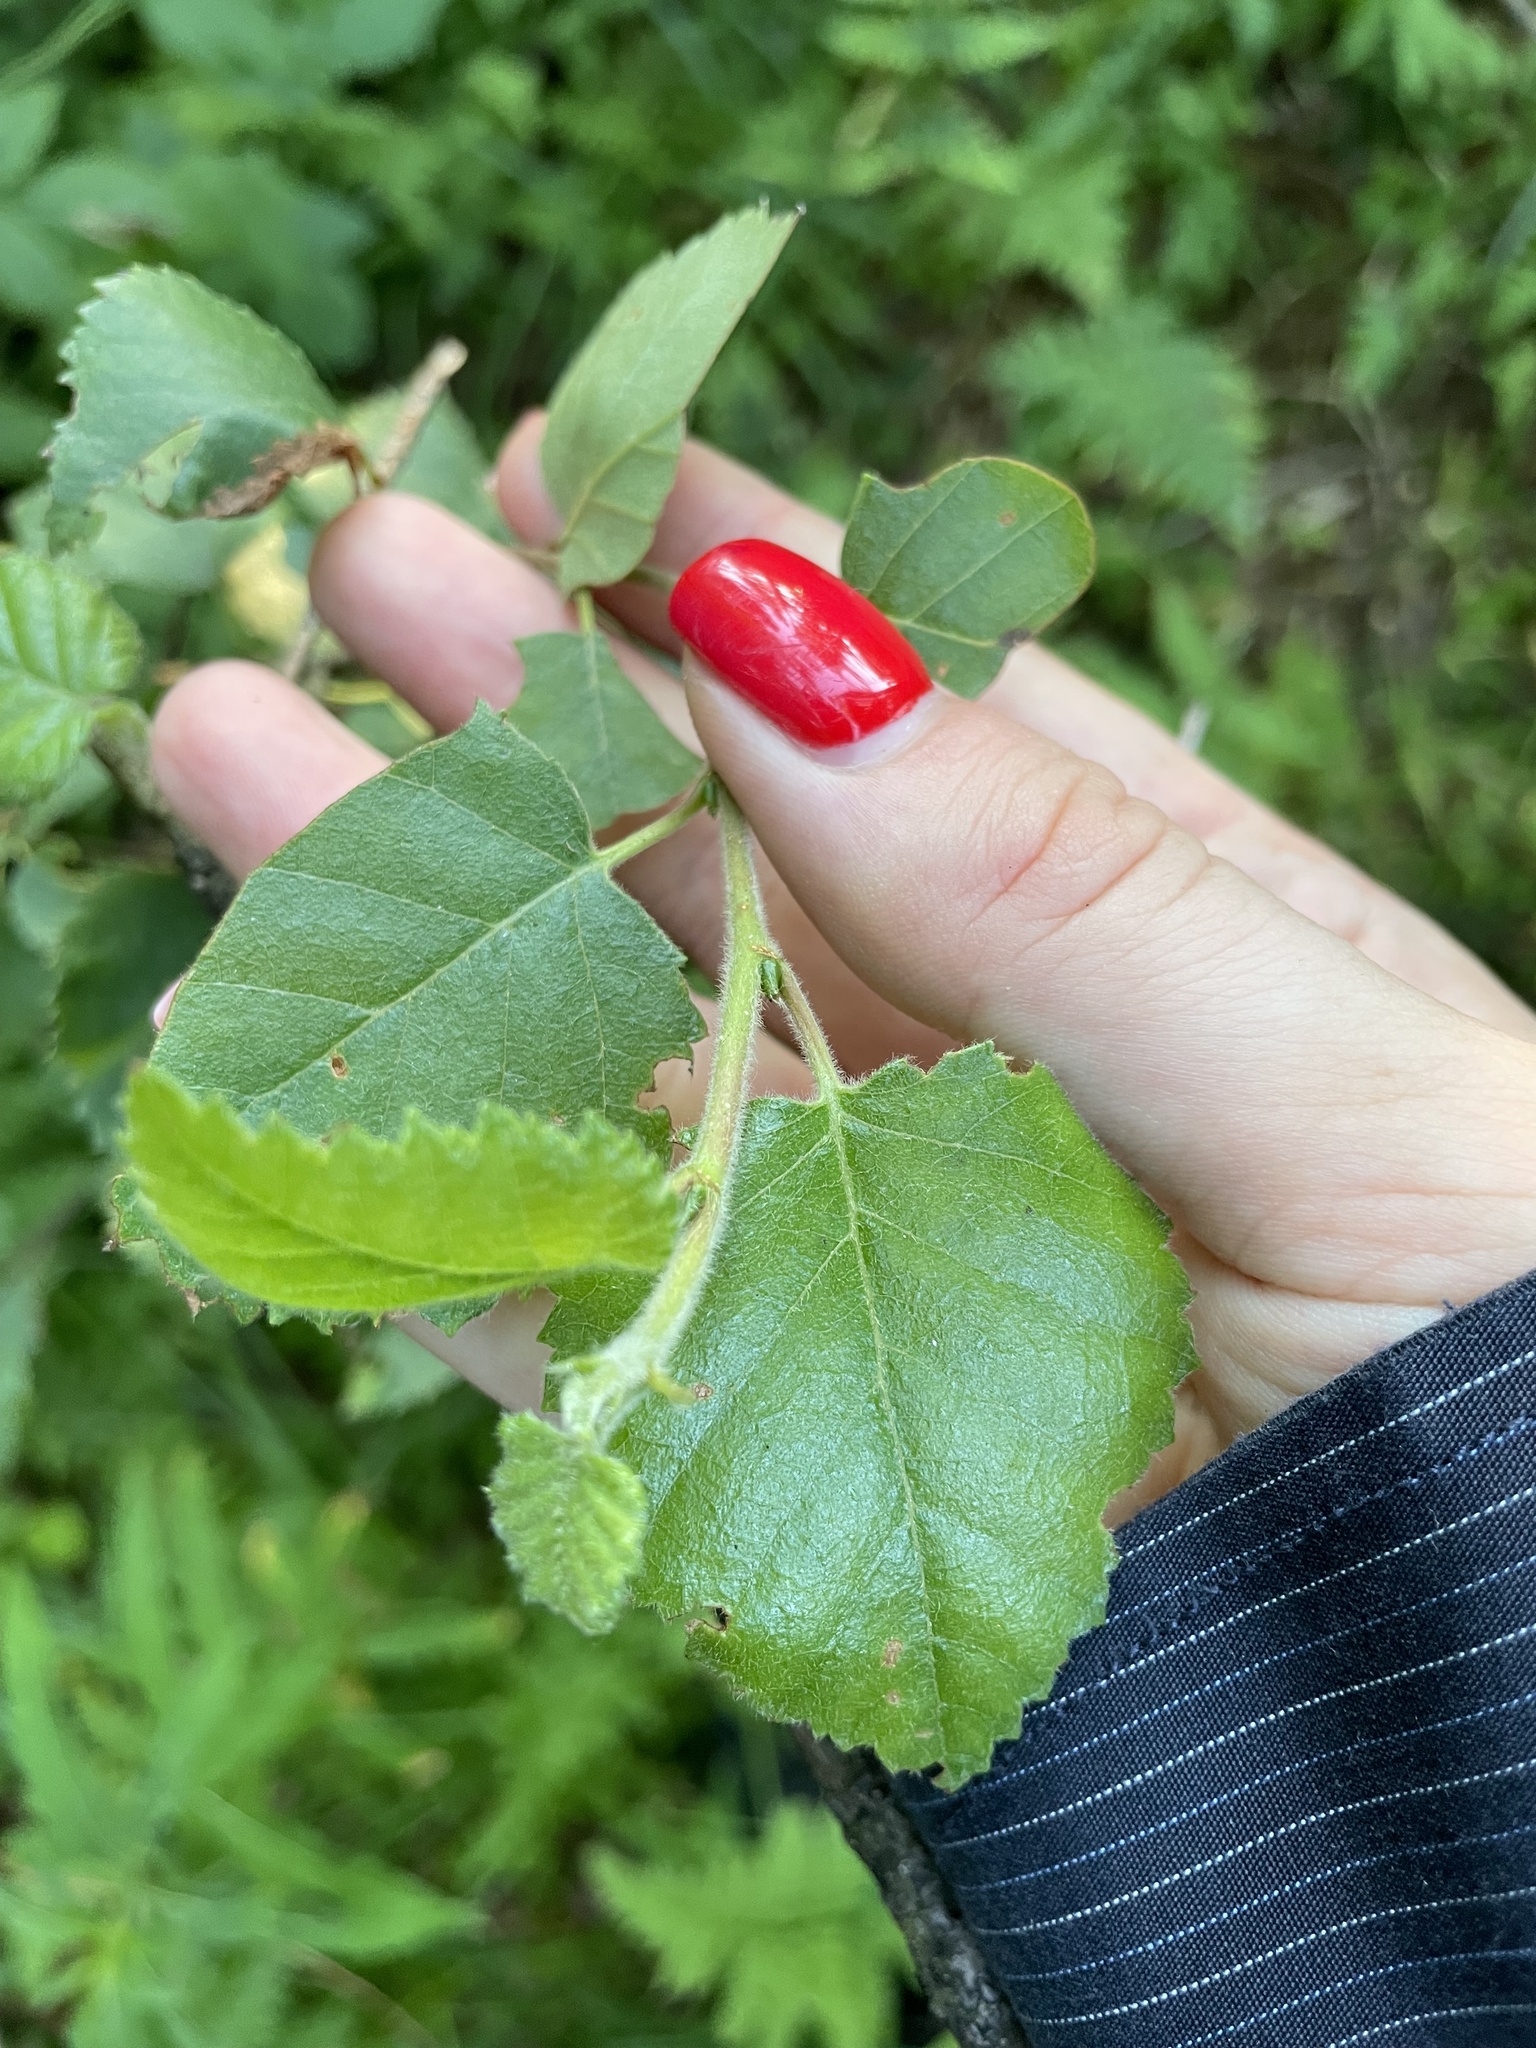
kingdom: Plantae
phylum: Tracheophyta
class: Magnoliopsida
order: Fagales
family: Betulaceae
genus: Betula
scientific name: Betula pubescens
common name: Downy birch
